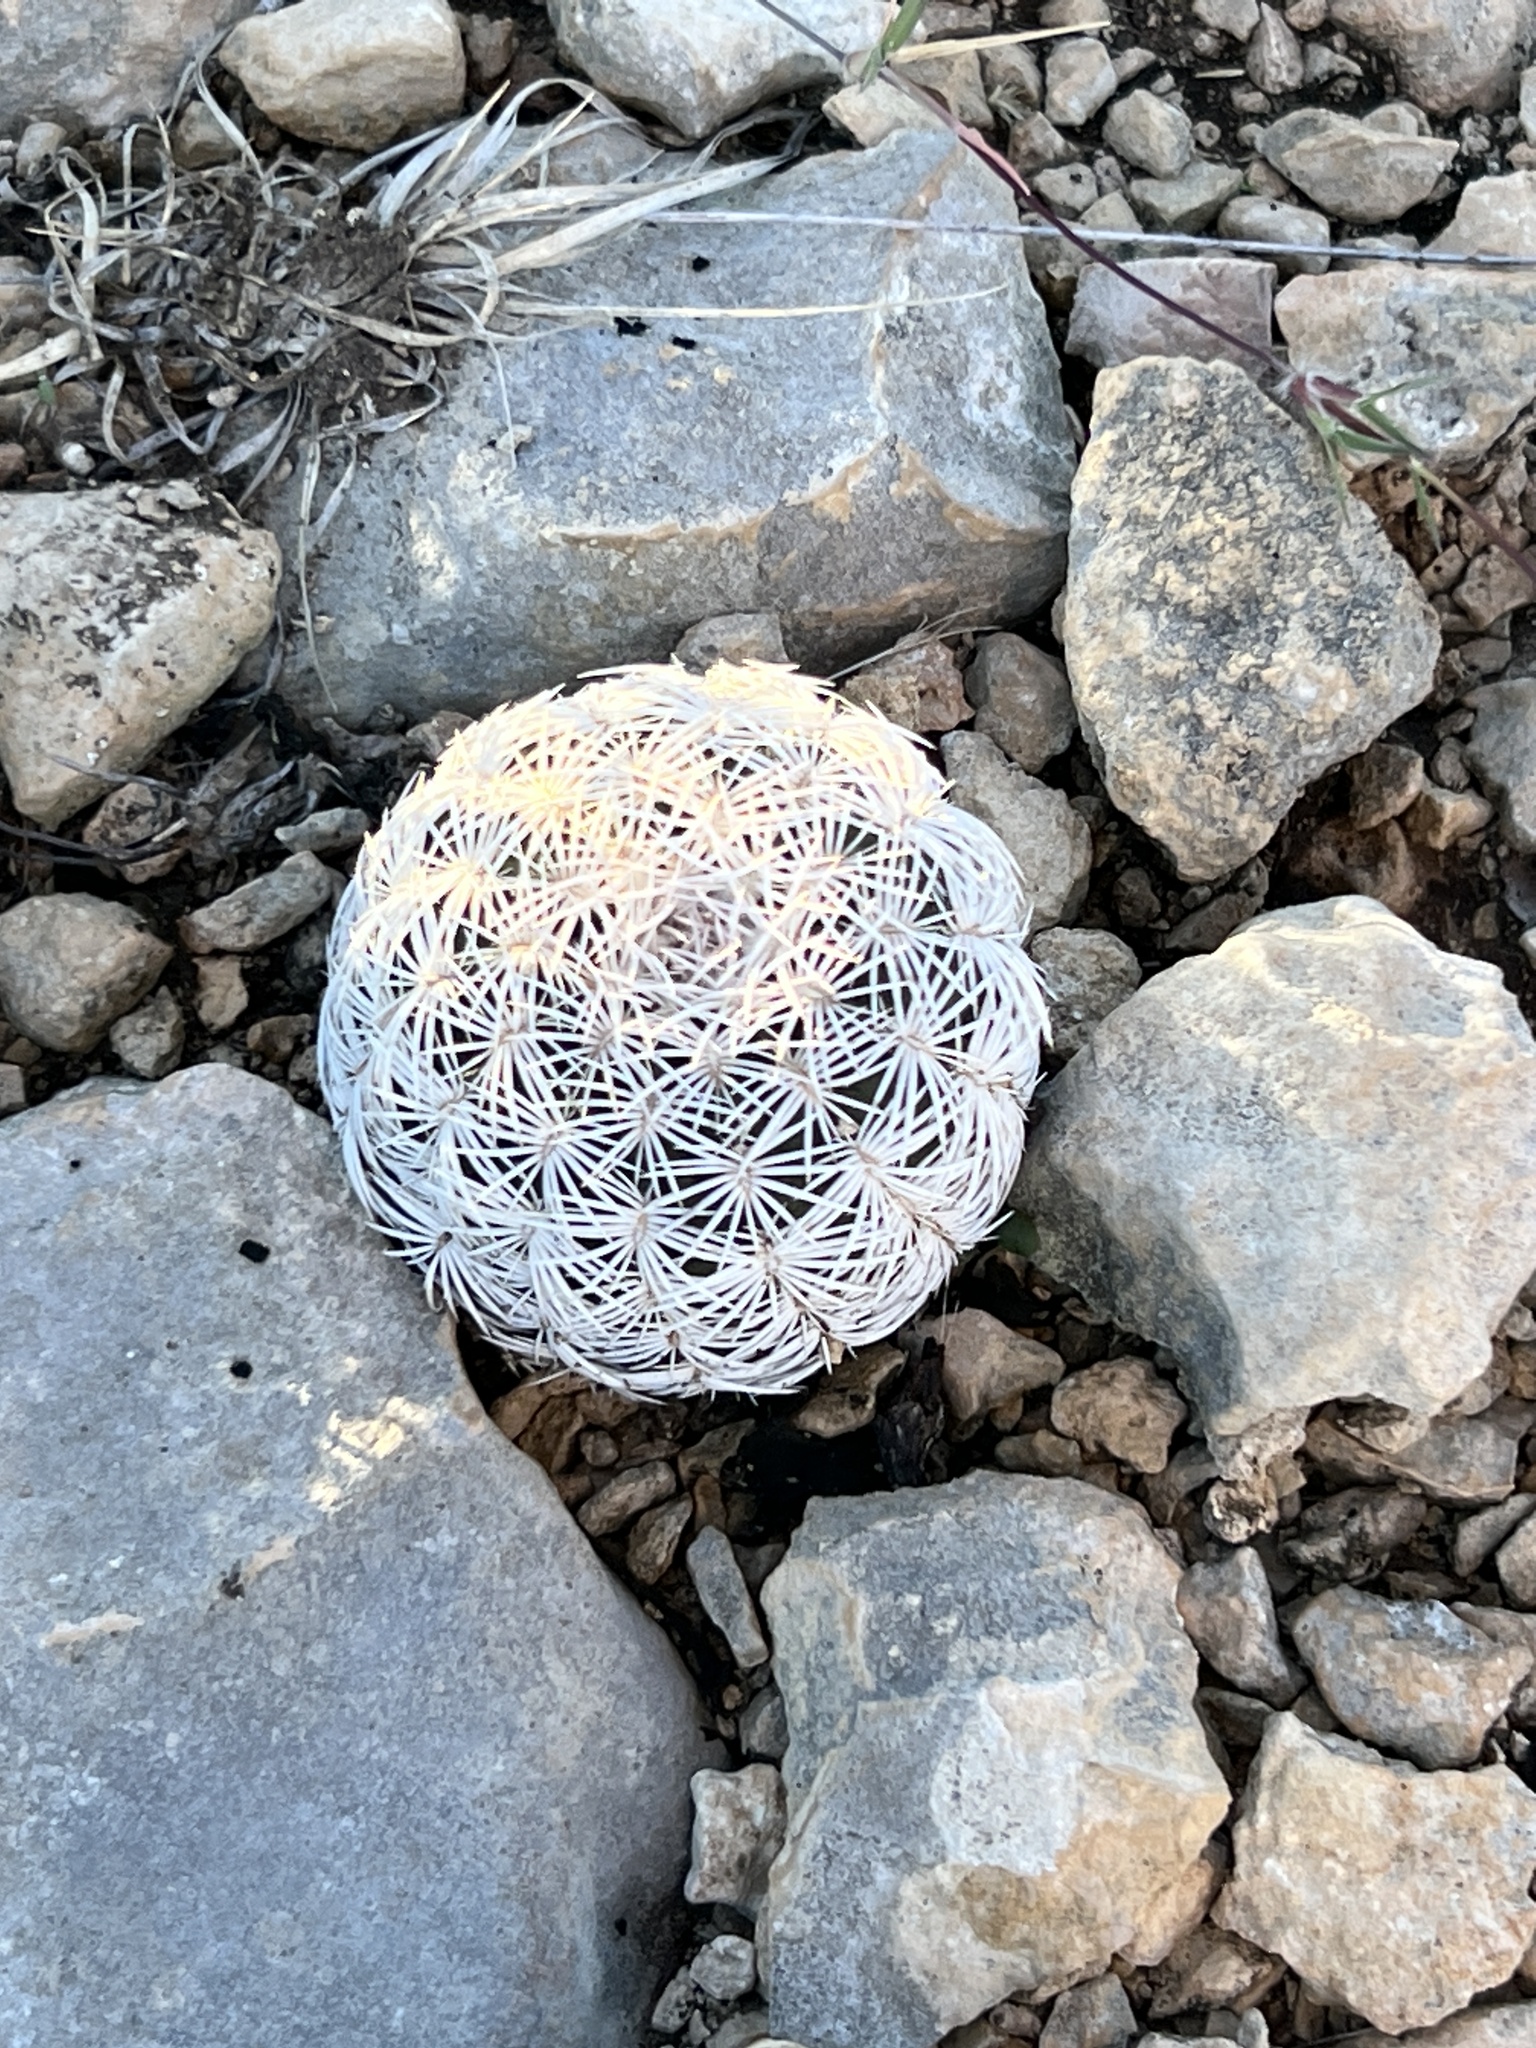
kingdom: Plantae
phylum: Tracheophyta
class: Magnoliopsida
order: Caryophyllales
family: Cactaceae
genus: Echinocereus
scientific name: Echinocereus reichenbachii
